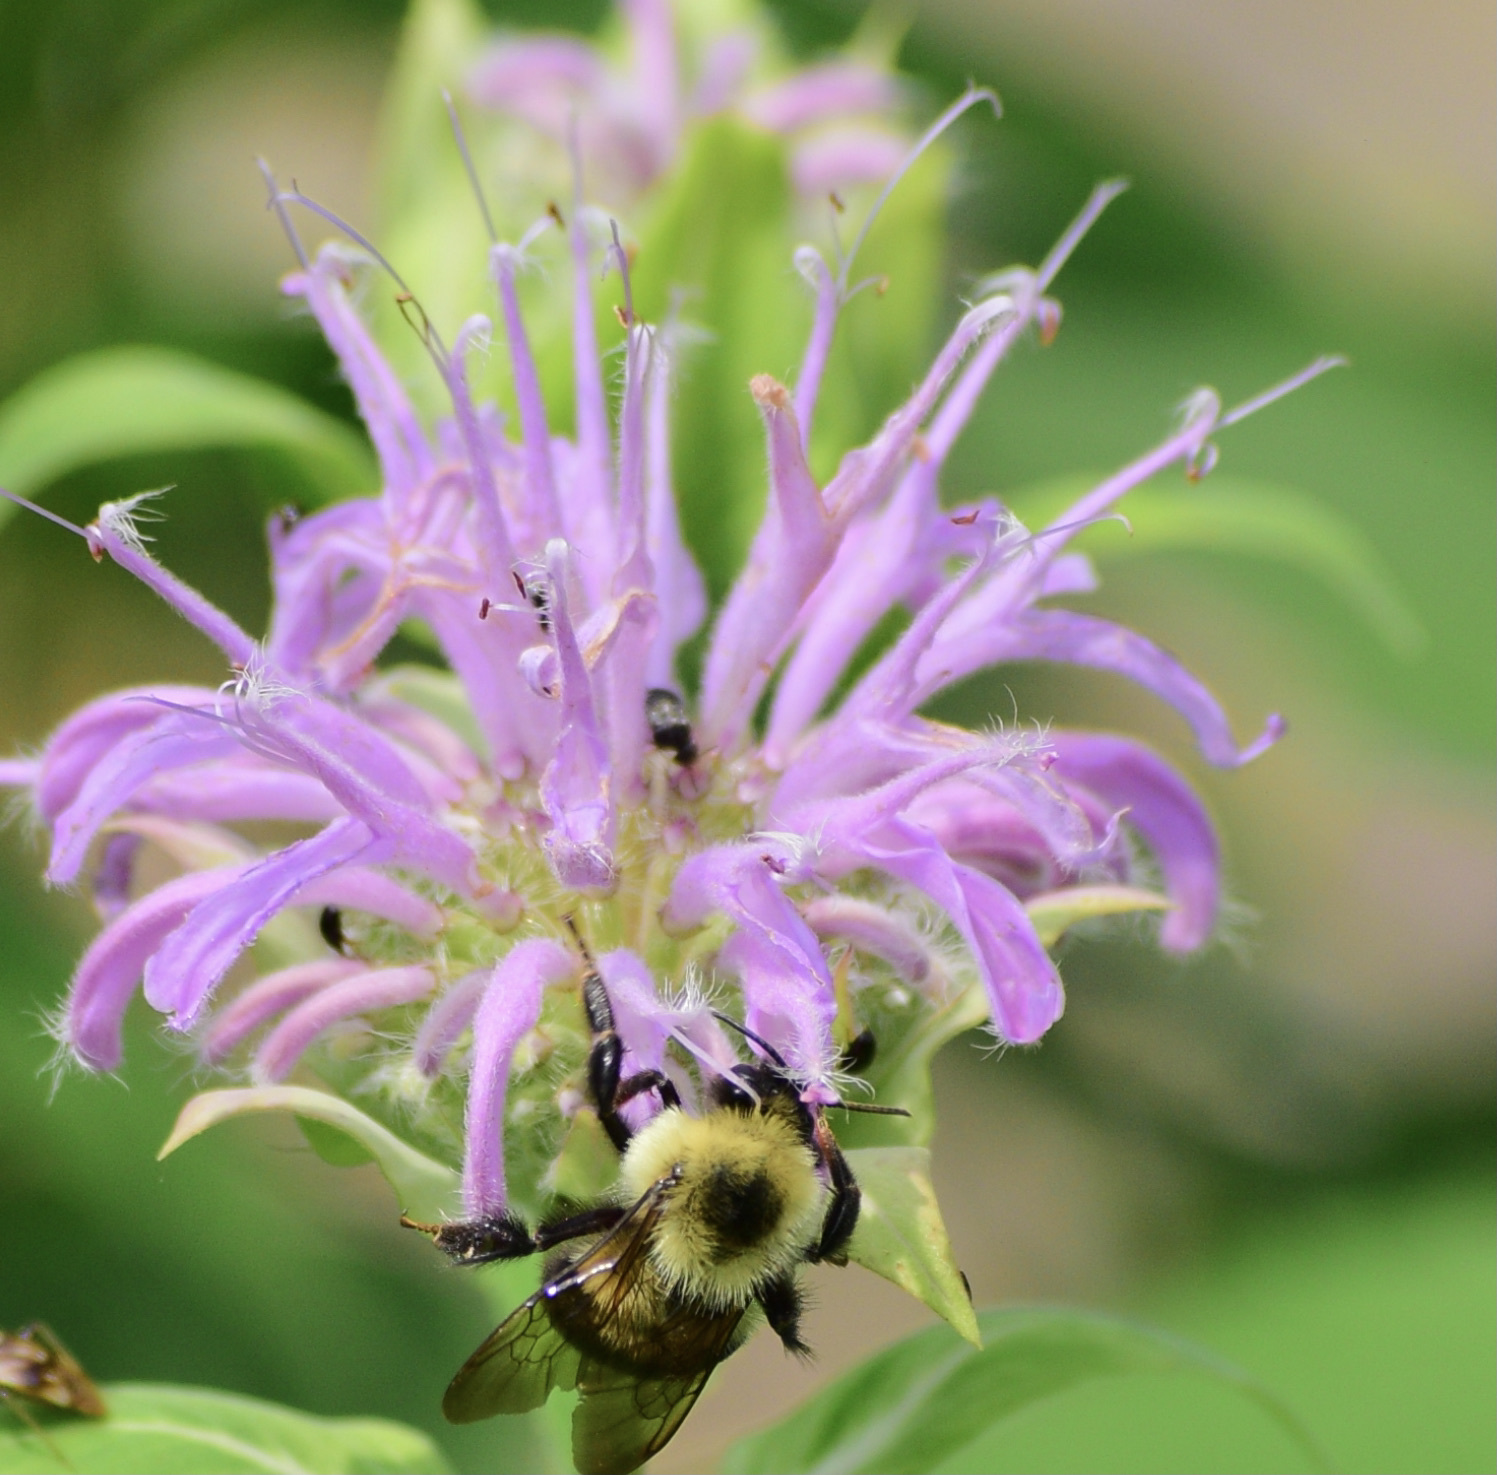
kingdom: Animalia
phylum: Arthropoda
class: Insecta
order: Hymenoptera
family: Apidae
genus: Bombus
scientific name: Bombus bimaculatus
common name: Two-spotted bumble bee
